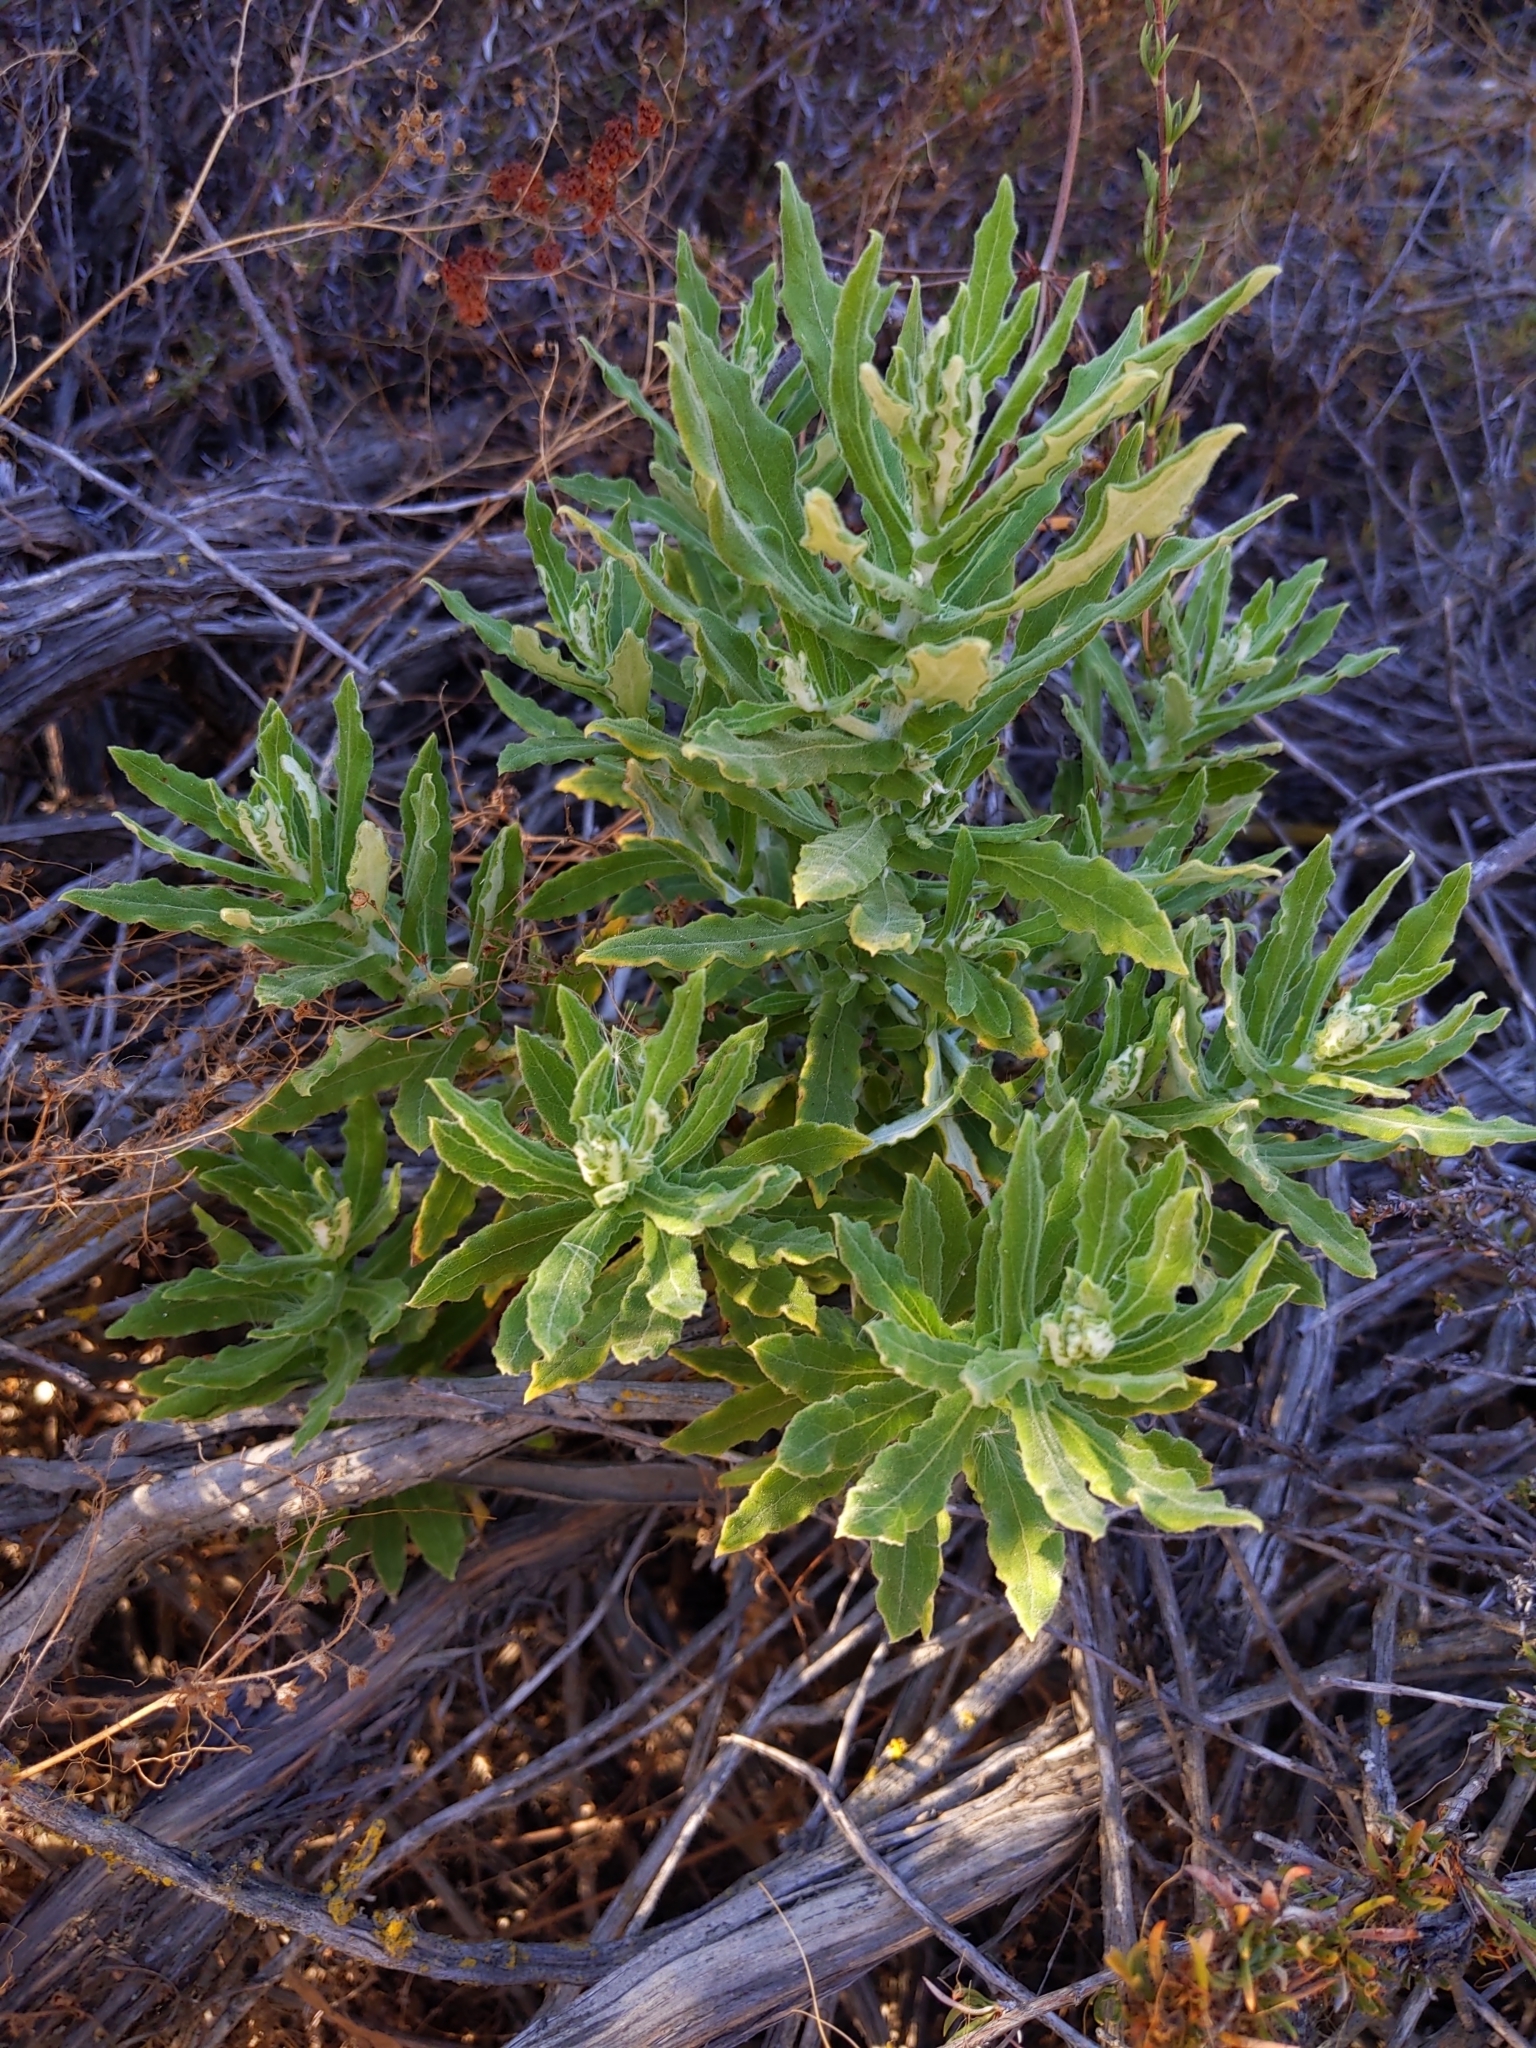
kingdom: Plantae
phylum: Tracheophyta
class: Magnoliopsida
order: Asterales
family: Asteraceae
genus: Pseudognaphalium
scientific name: Pseudognaphalium biolettii
